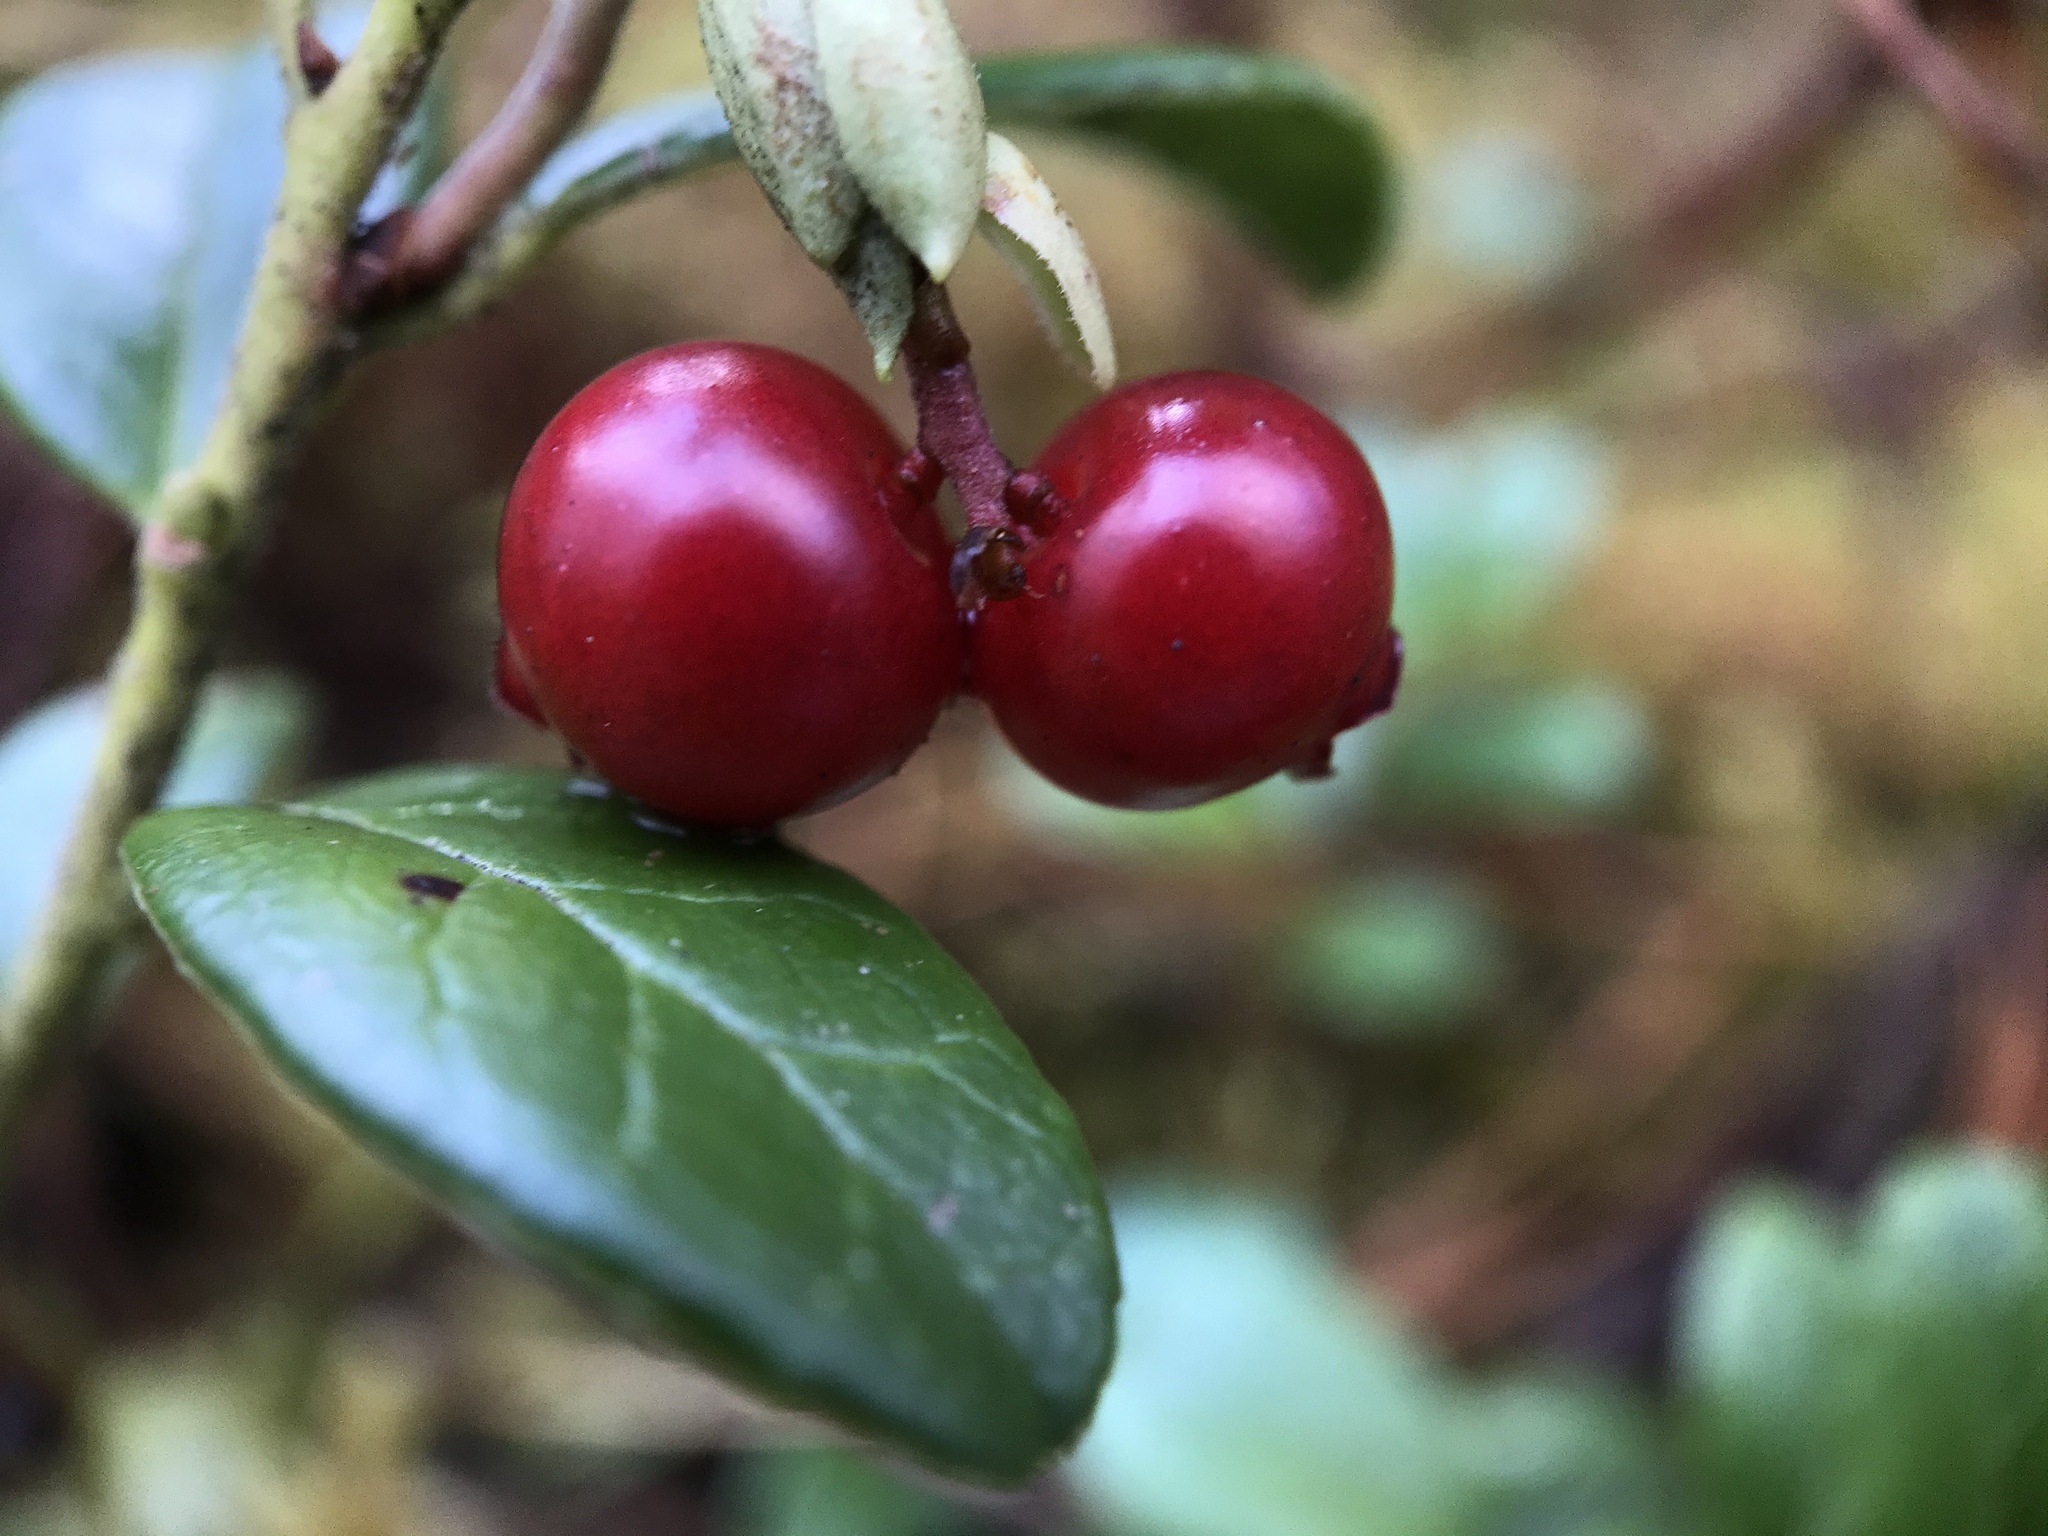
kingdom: Plantae
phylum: Tracheophyta
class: Magnoliopsida
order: Ericales
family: Ericaceae
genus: Vaccinium
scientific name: Vaccinium vitis-idaea
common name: Cowberry
